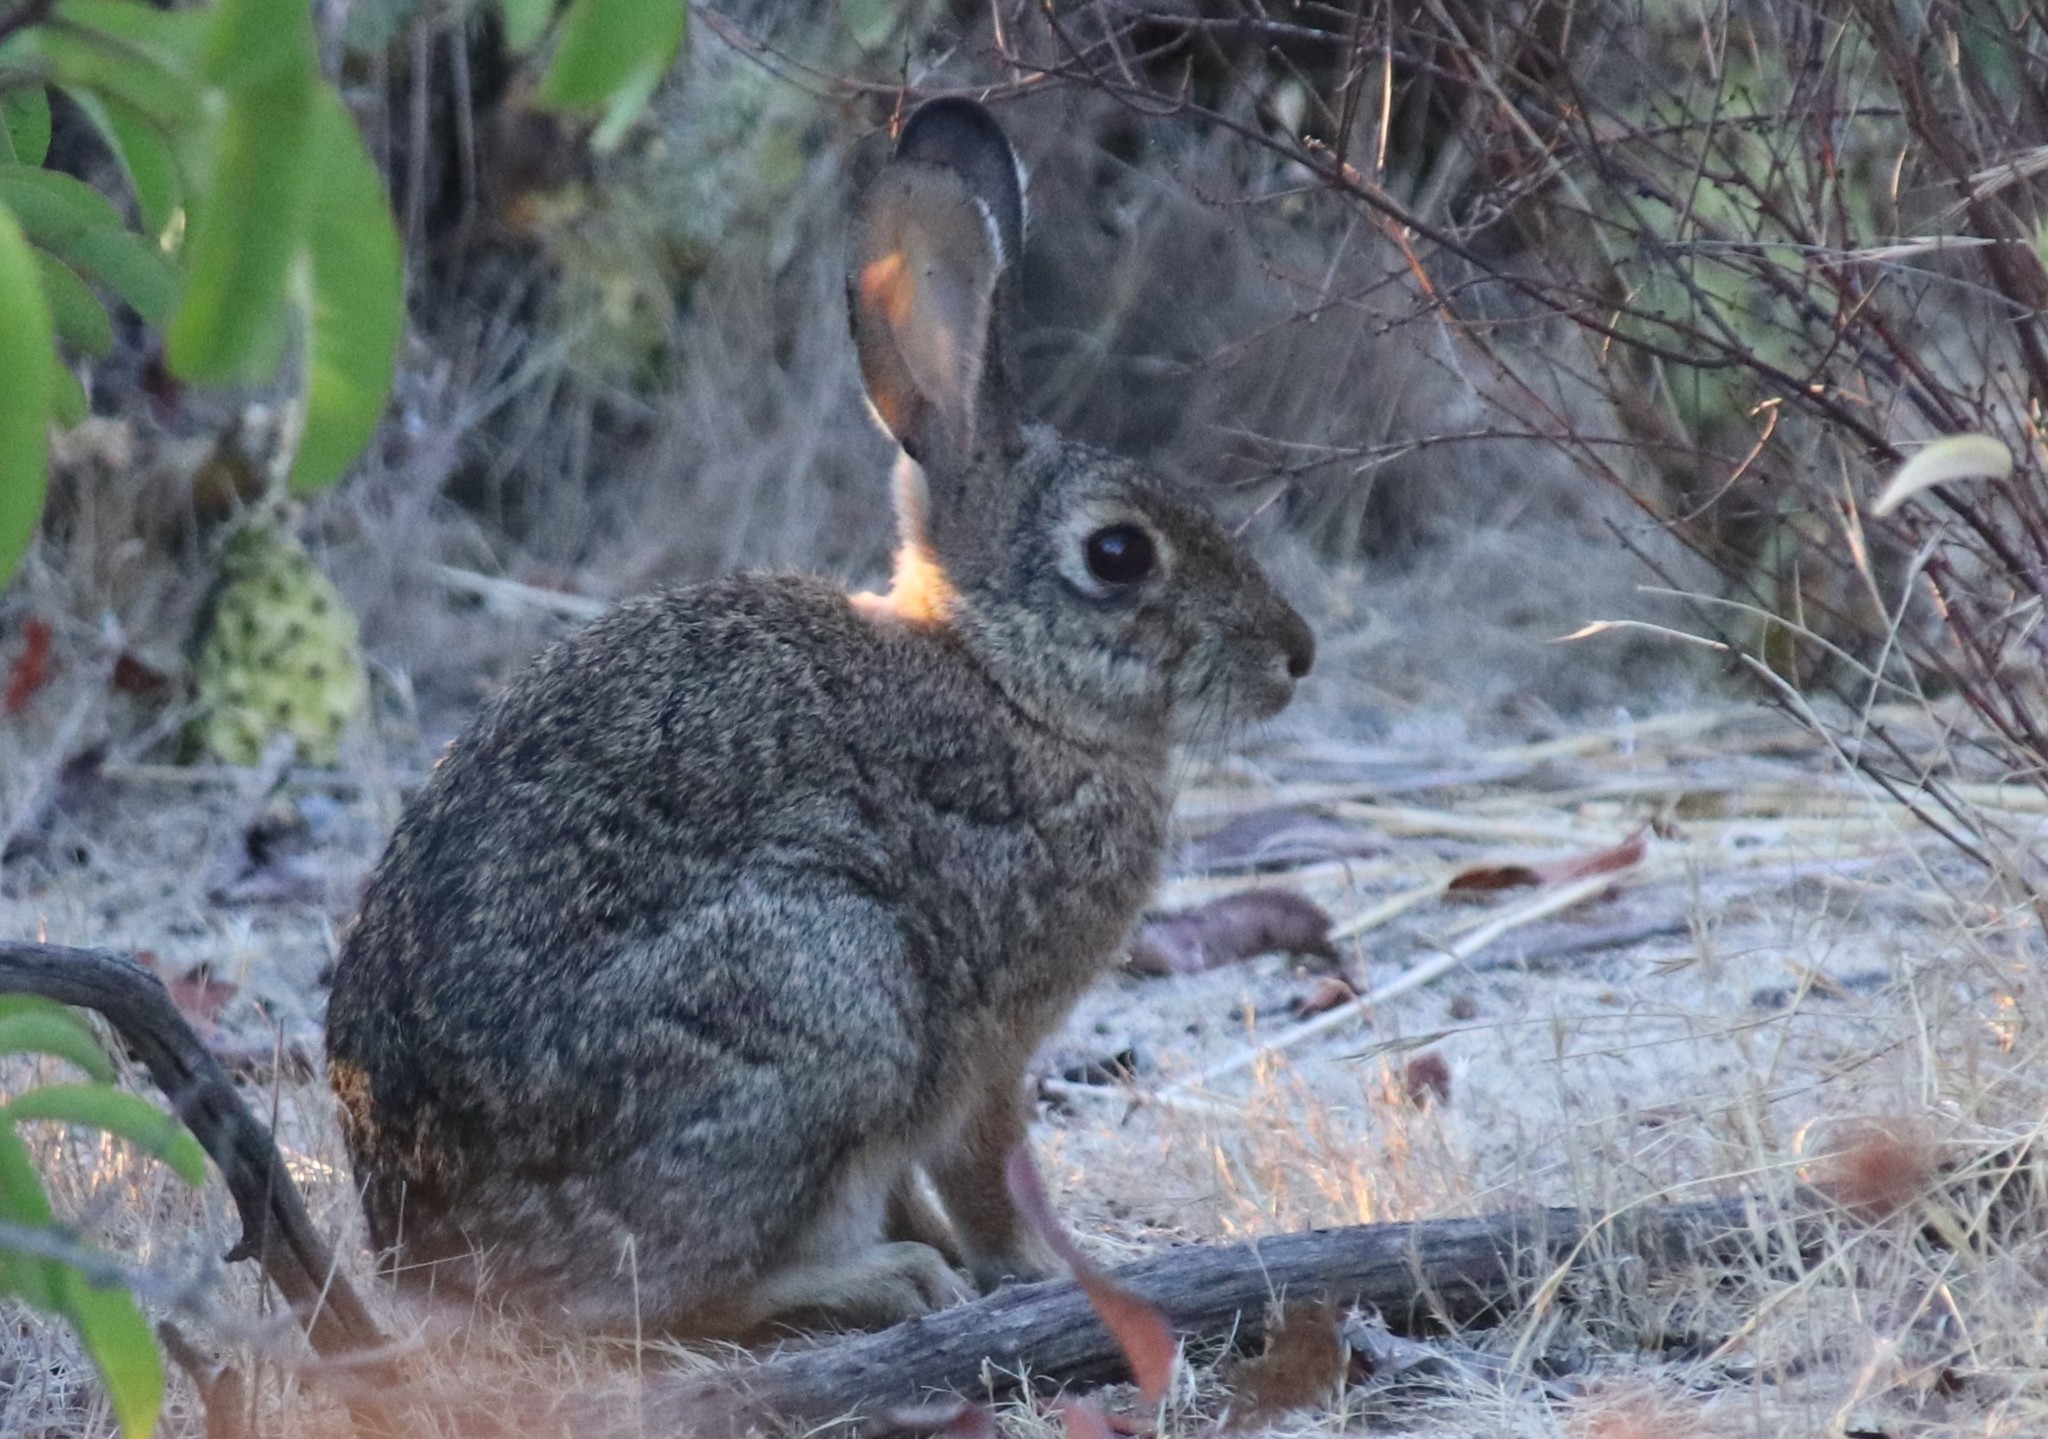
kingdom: Animalia
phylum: Chordata
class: Mammalia
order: Lagomorpha
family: Leporidae
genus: Sylvilagus
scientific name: Sylvilagus audubonii
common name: Desert cottontail
